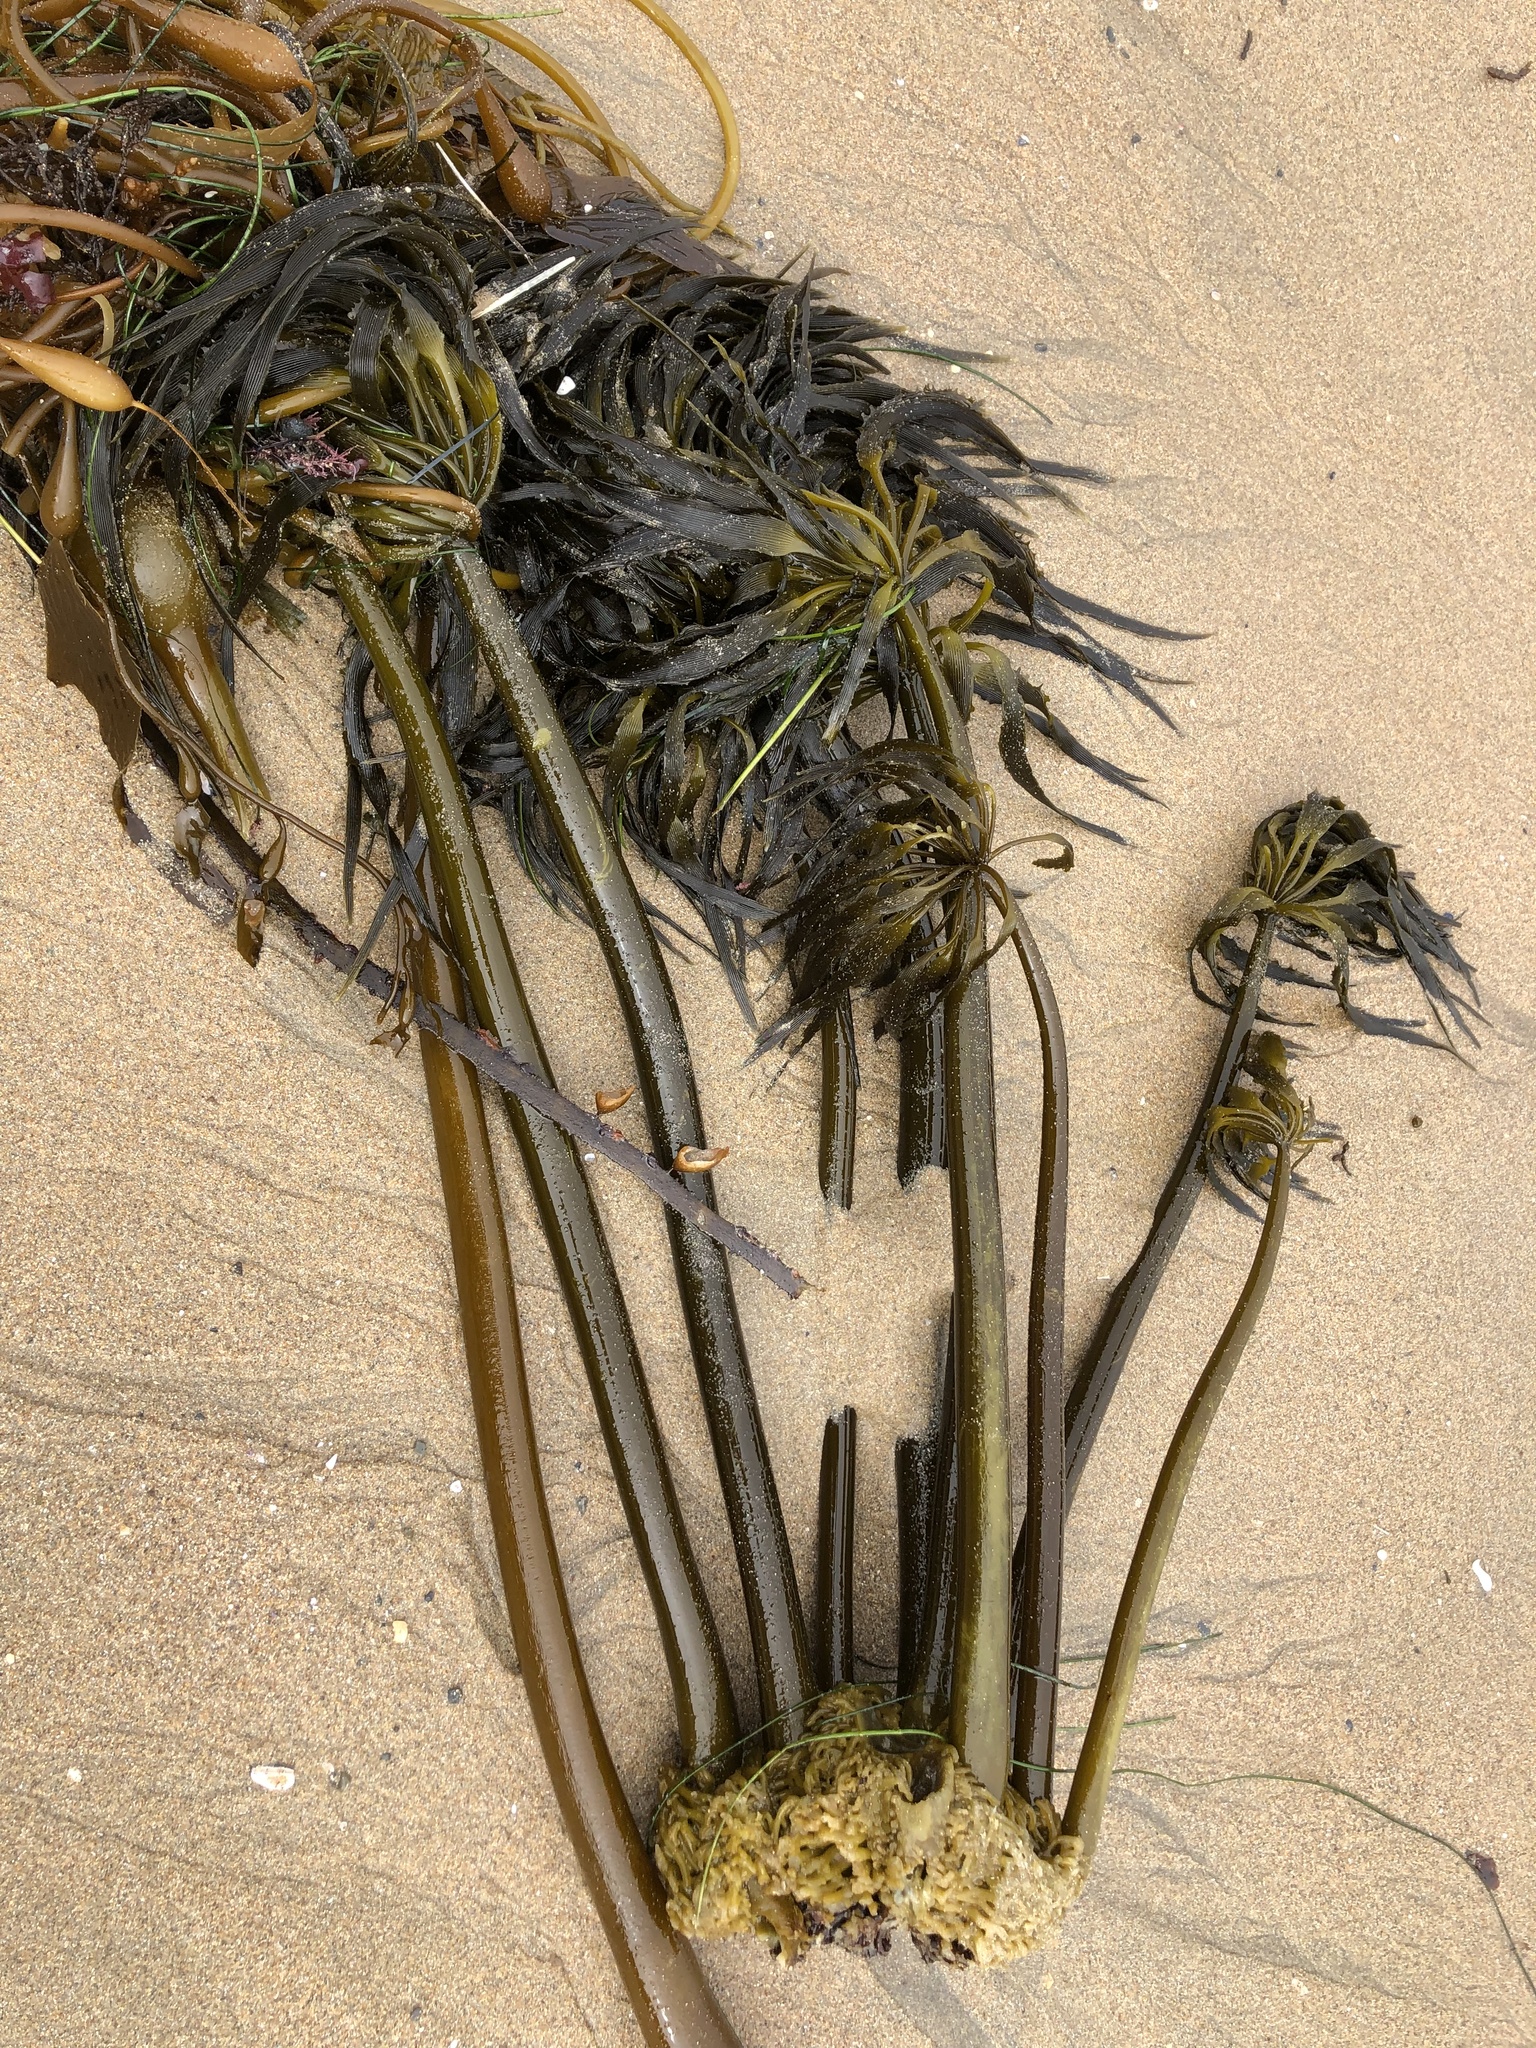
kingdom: Chromista
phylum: Ochrophyta
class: Phaeophyceae
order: Laminariales
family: Laminariaceae
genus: Postelsia
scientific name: Postelsia palmiformis
